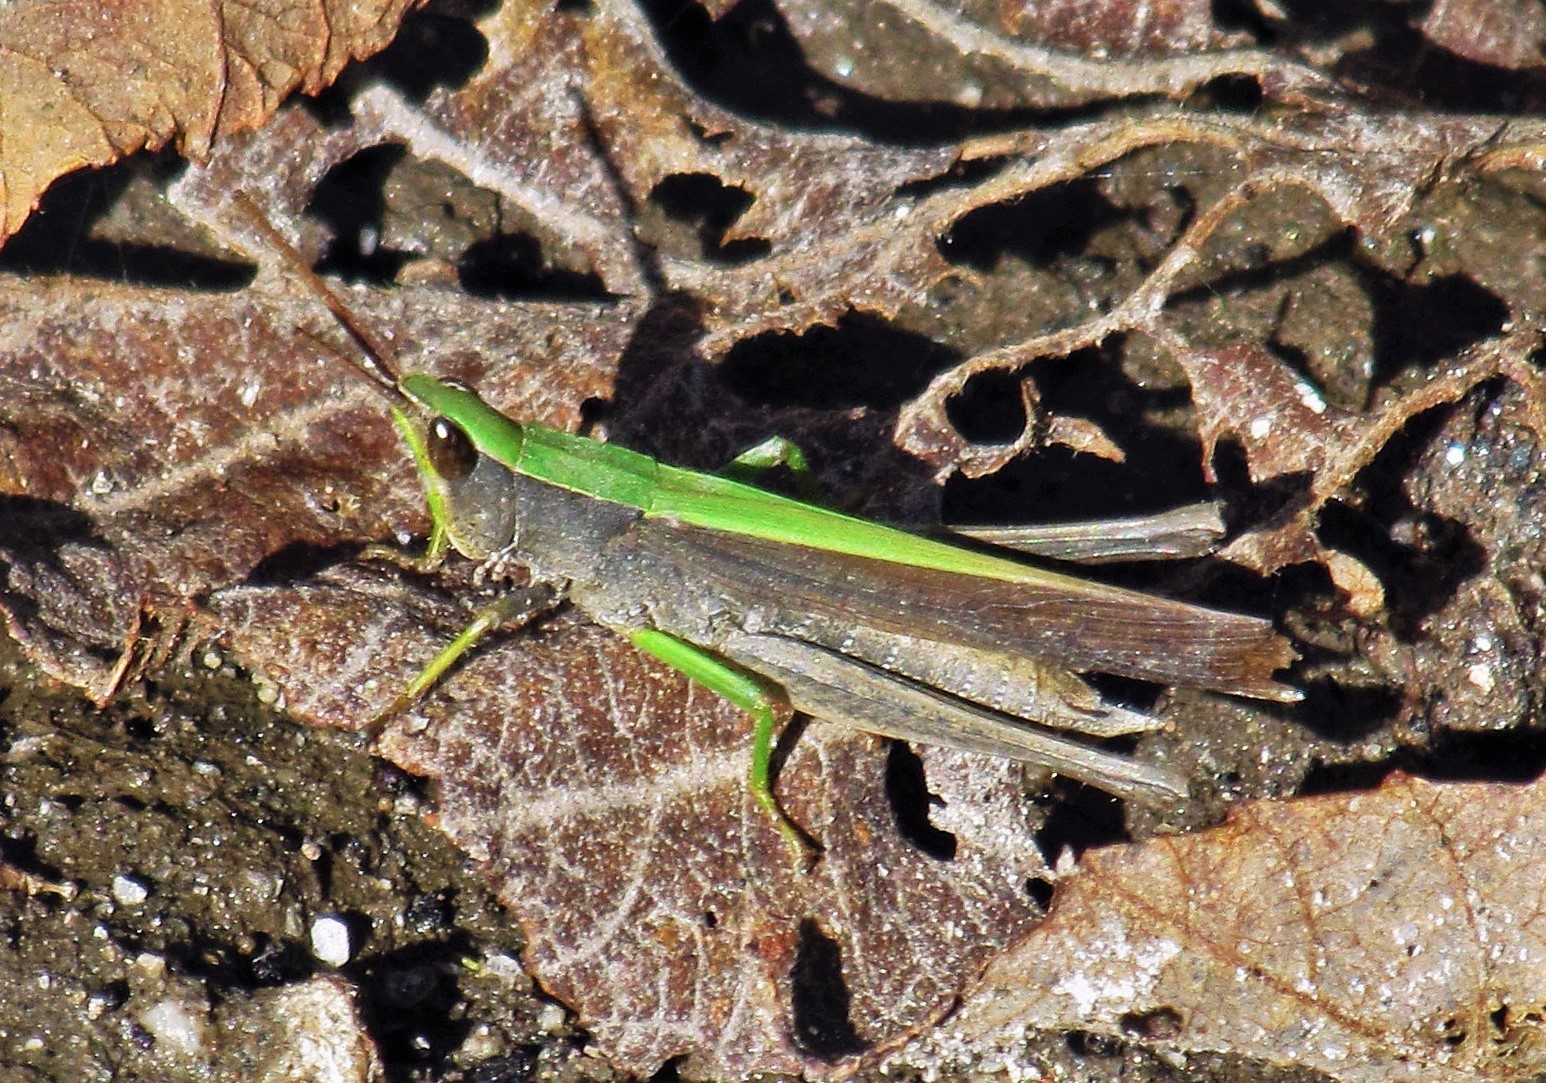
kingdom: Animalia
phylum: Arthropoda
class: Insecta
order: Orthoptera
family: Acrididae
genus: Metaleptea
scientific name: Metaleptea adspersa
